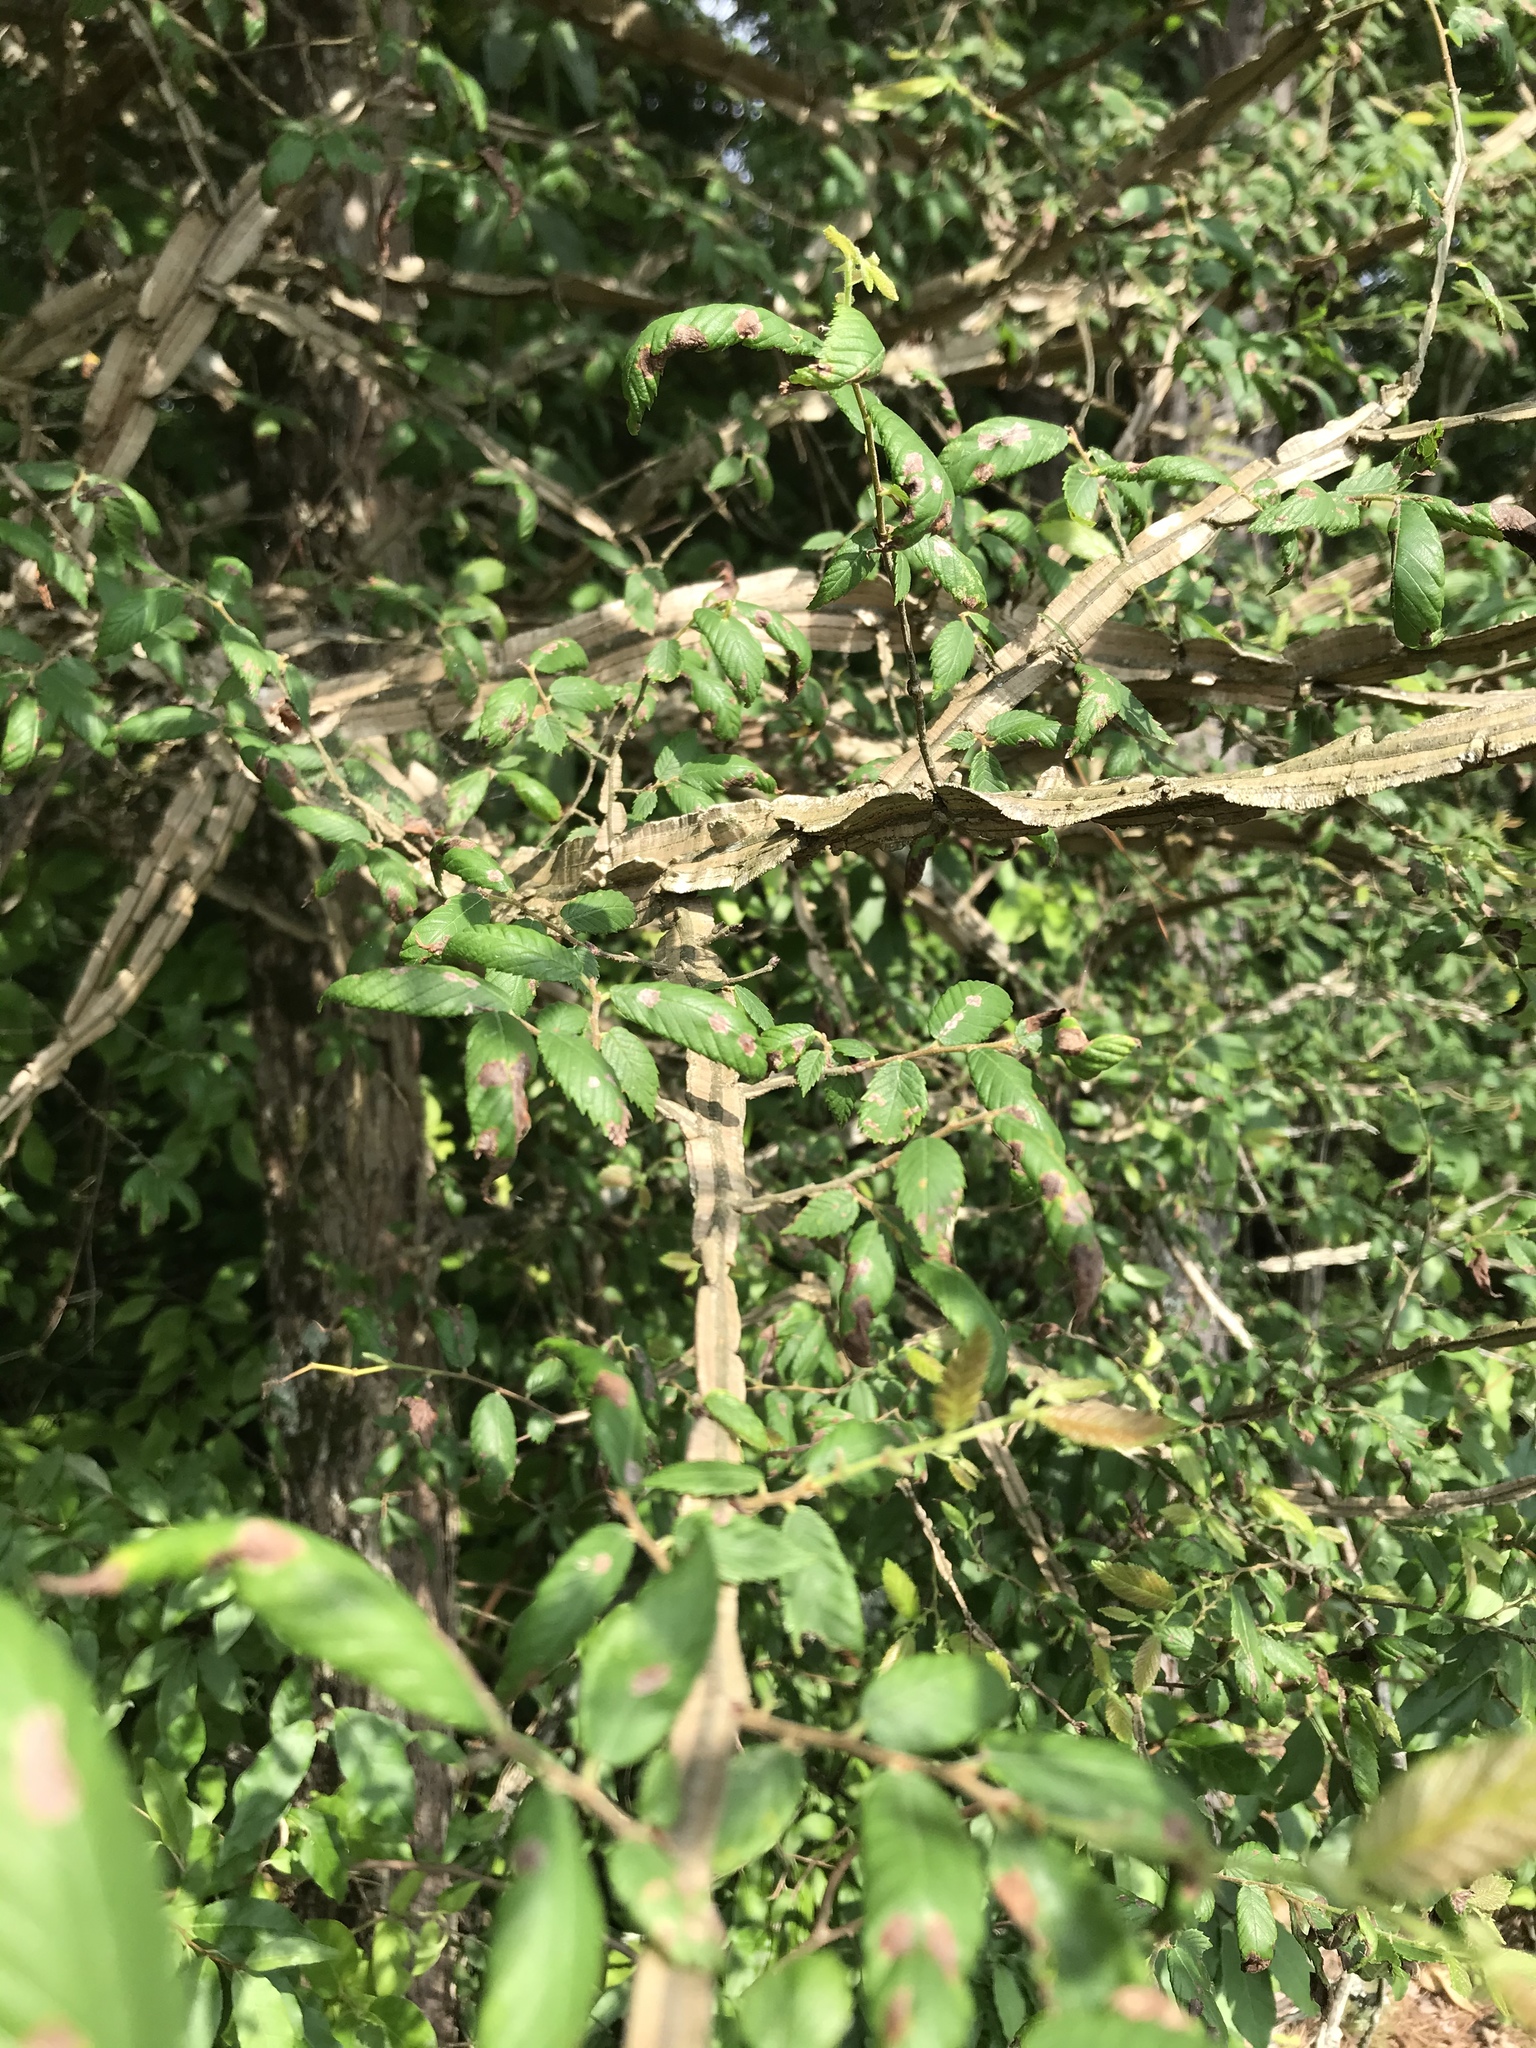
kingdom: Plantae
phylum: Tracheophyta
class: Magnoliopsida
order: Rosales
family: Ulmaceae
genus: Ulmus
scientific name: Ulmus alata
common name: Winged elm
